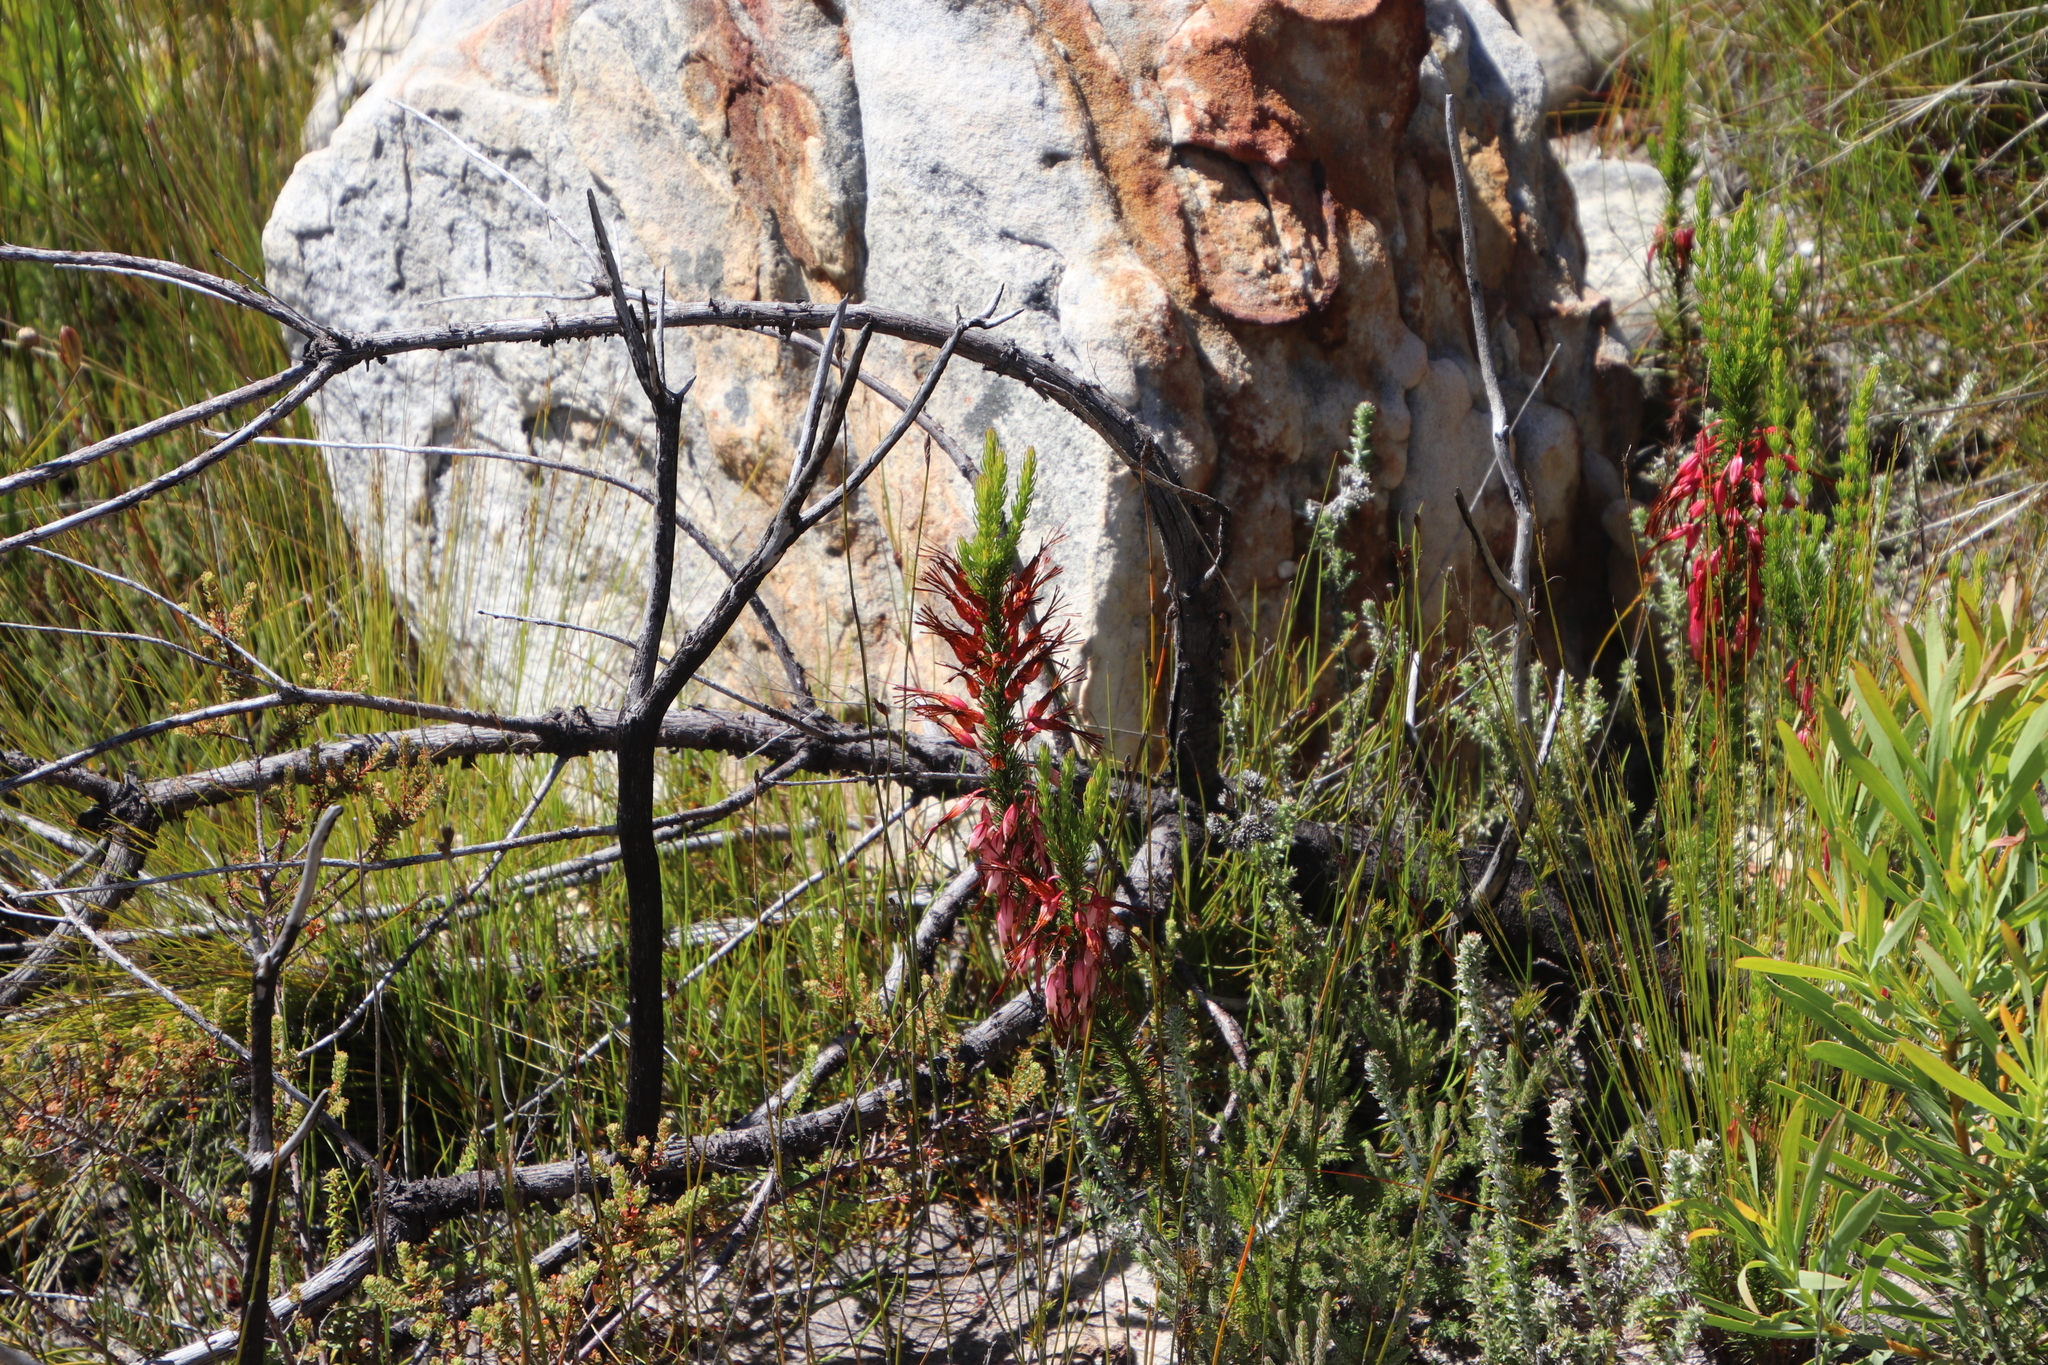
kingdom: Plantae
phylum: Tracheophyta
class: Magnoliopsida
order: Ericales
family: Ericaceae
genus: Erica
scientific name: Erica plukenetii
